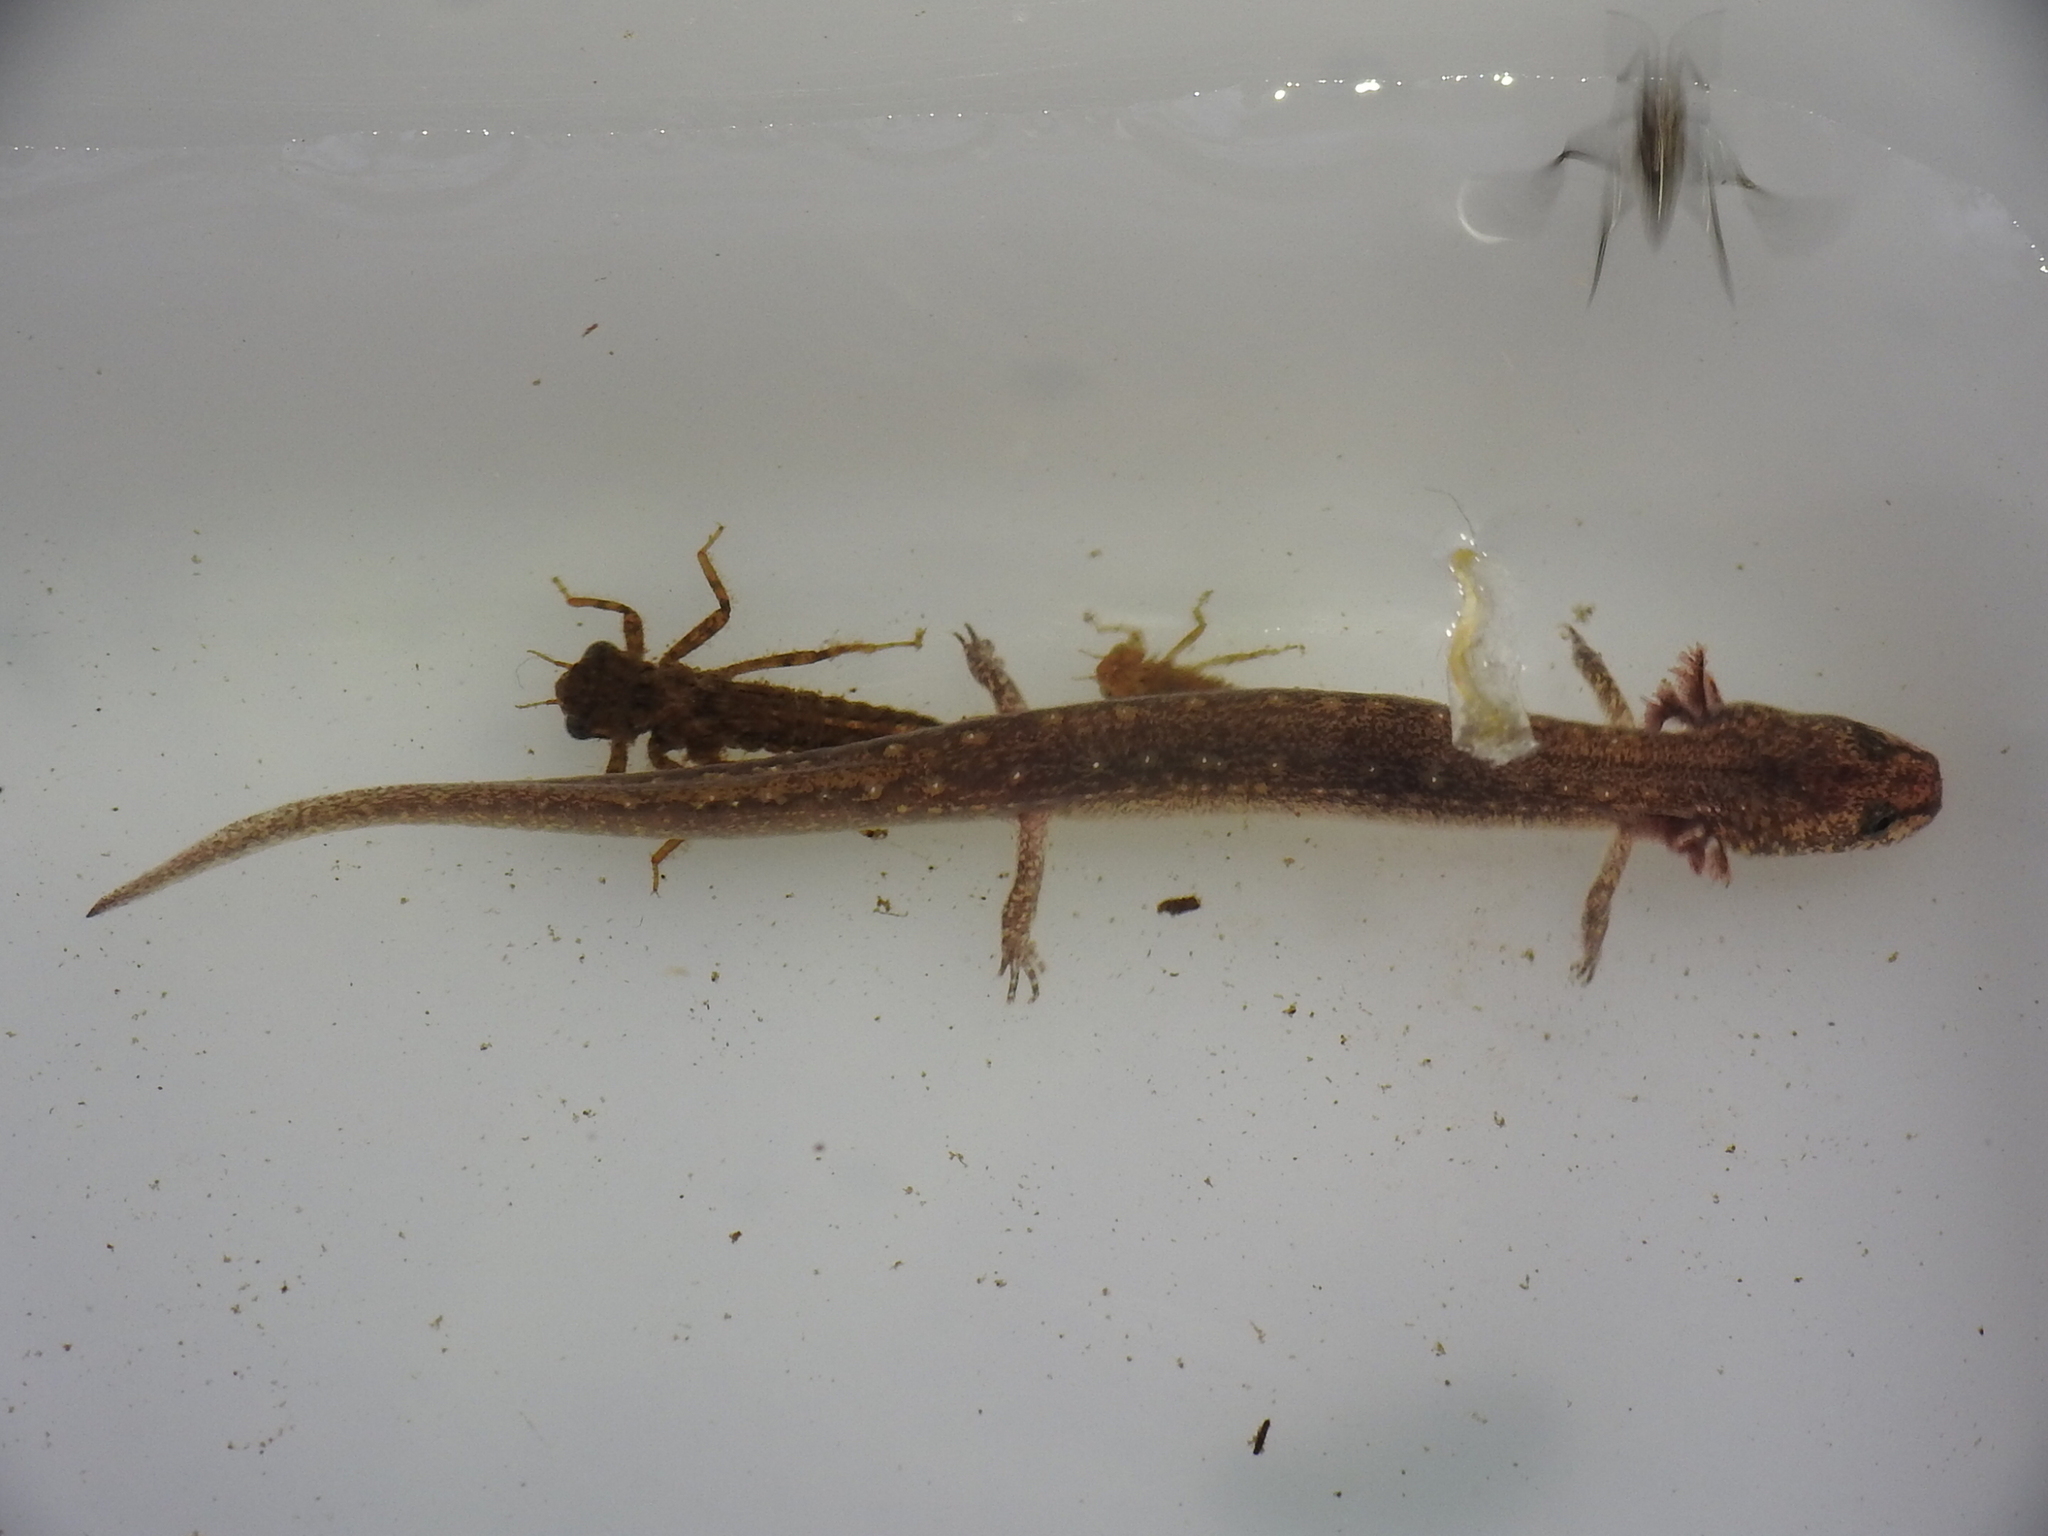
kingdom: Animalia
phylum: Chordata
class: Amphibia
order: Caudata
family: Plethodontidae
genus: Eurycea
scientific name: Eurycea tonkawae
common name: Jollyville plateau salamander
